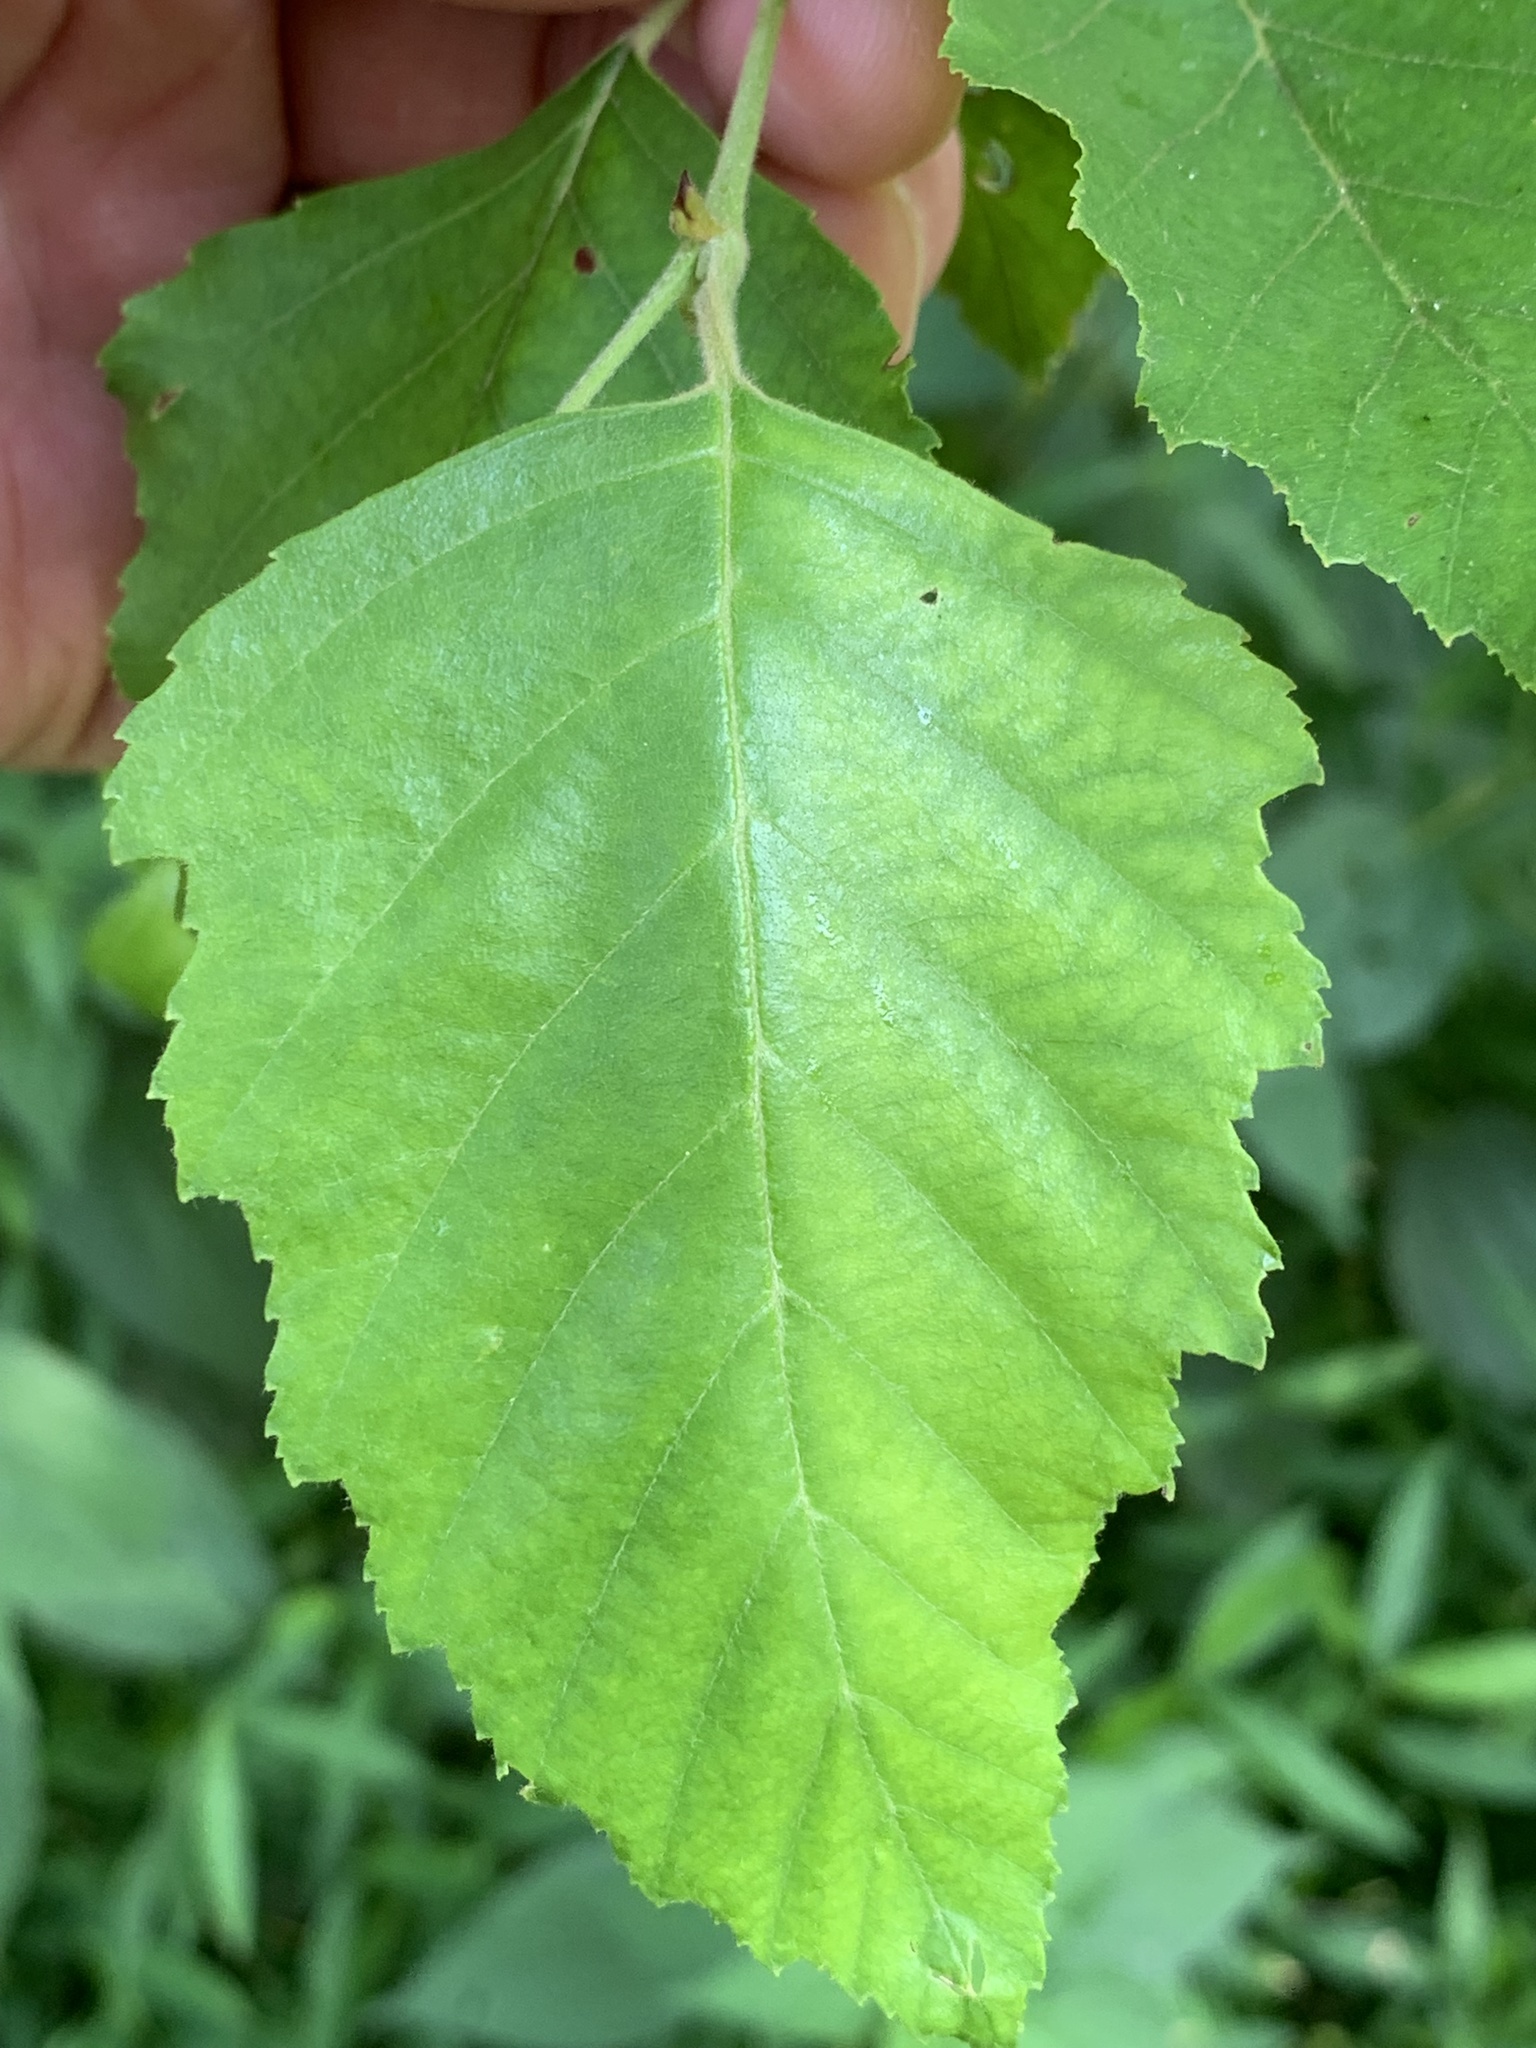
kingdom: Plantae
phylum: Tracheophyta
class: Magnoliopsida
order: Fagales
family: Betulaceae
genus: Betula
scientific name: Betula nigra
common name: Black birch
